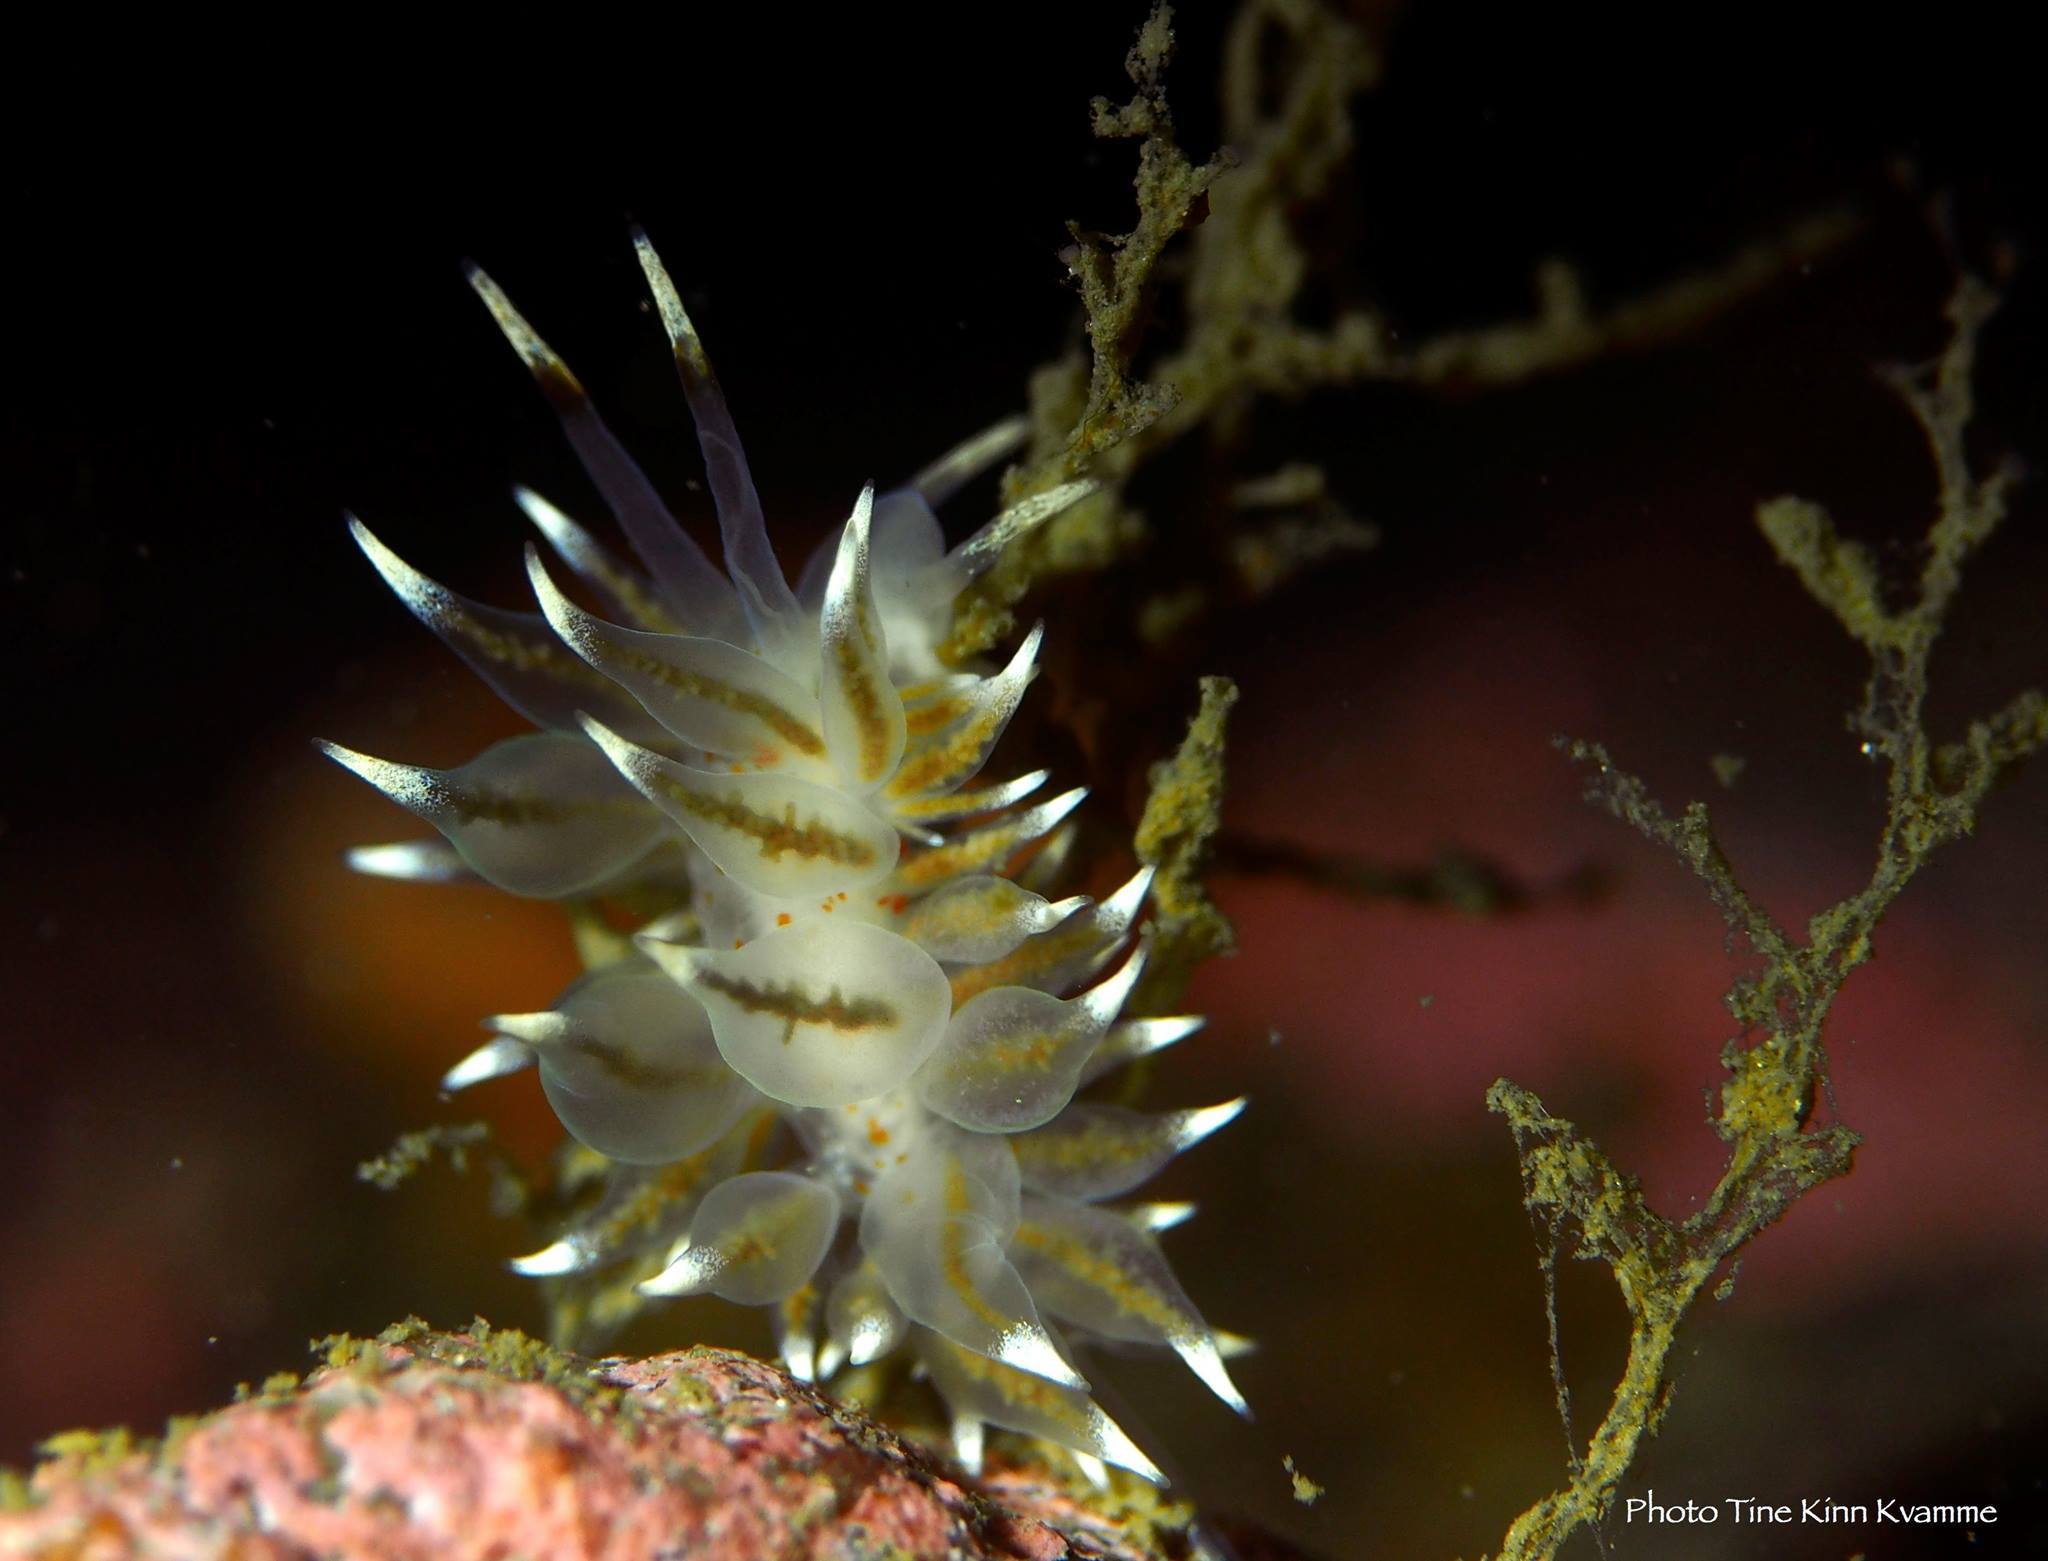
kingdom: Animalia
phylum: Mollusca
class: Gastropoda
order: Nudibranchia
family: Eubranchidae
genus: Amphorina
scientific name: Amphorina linensis
